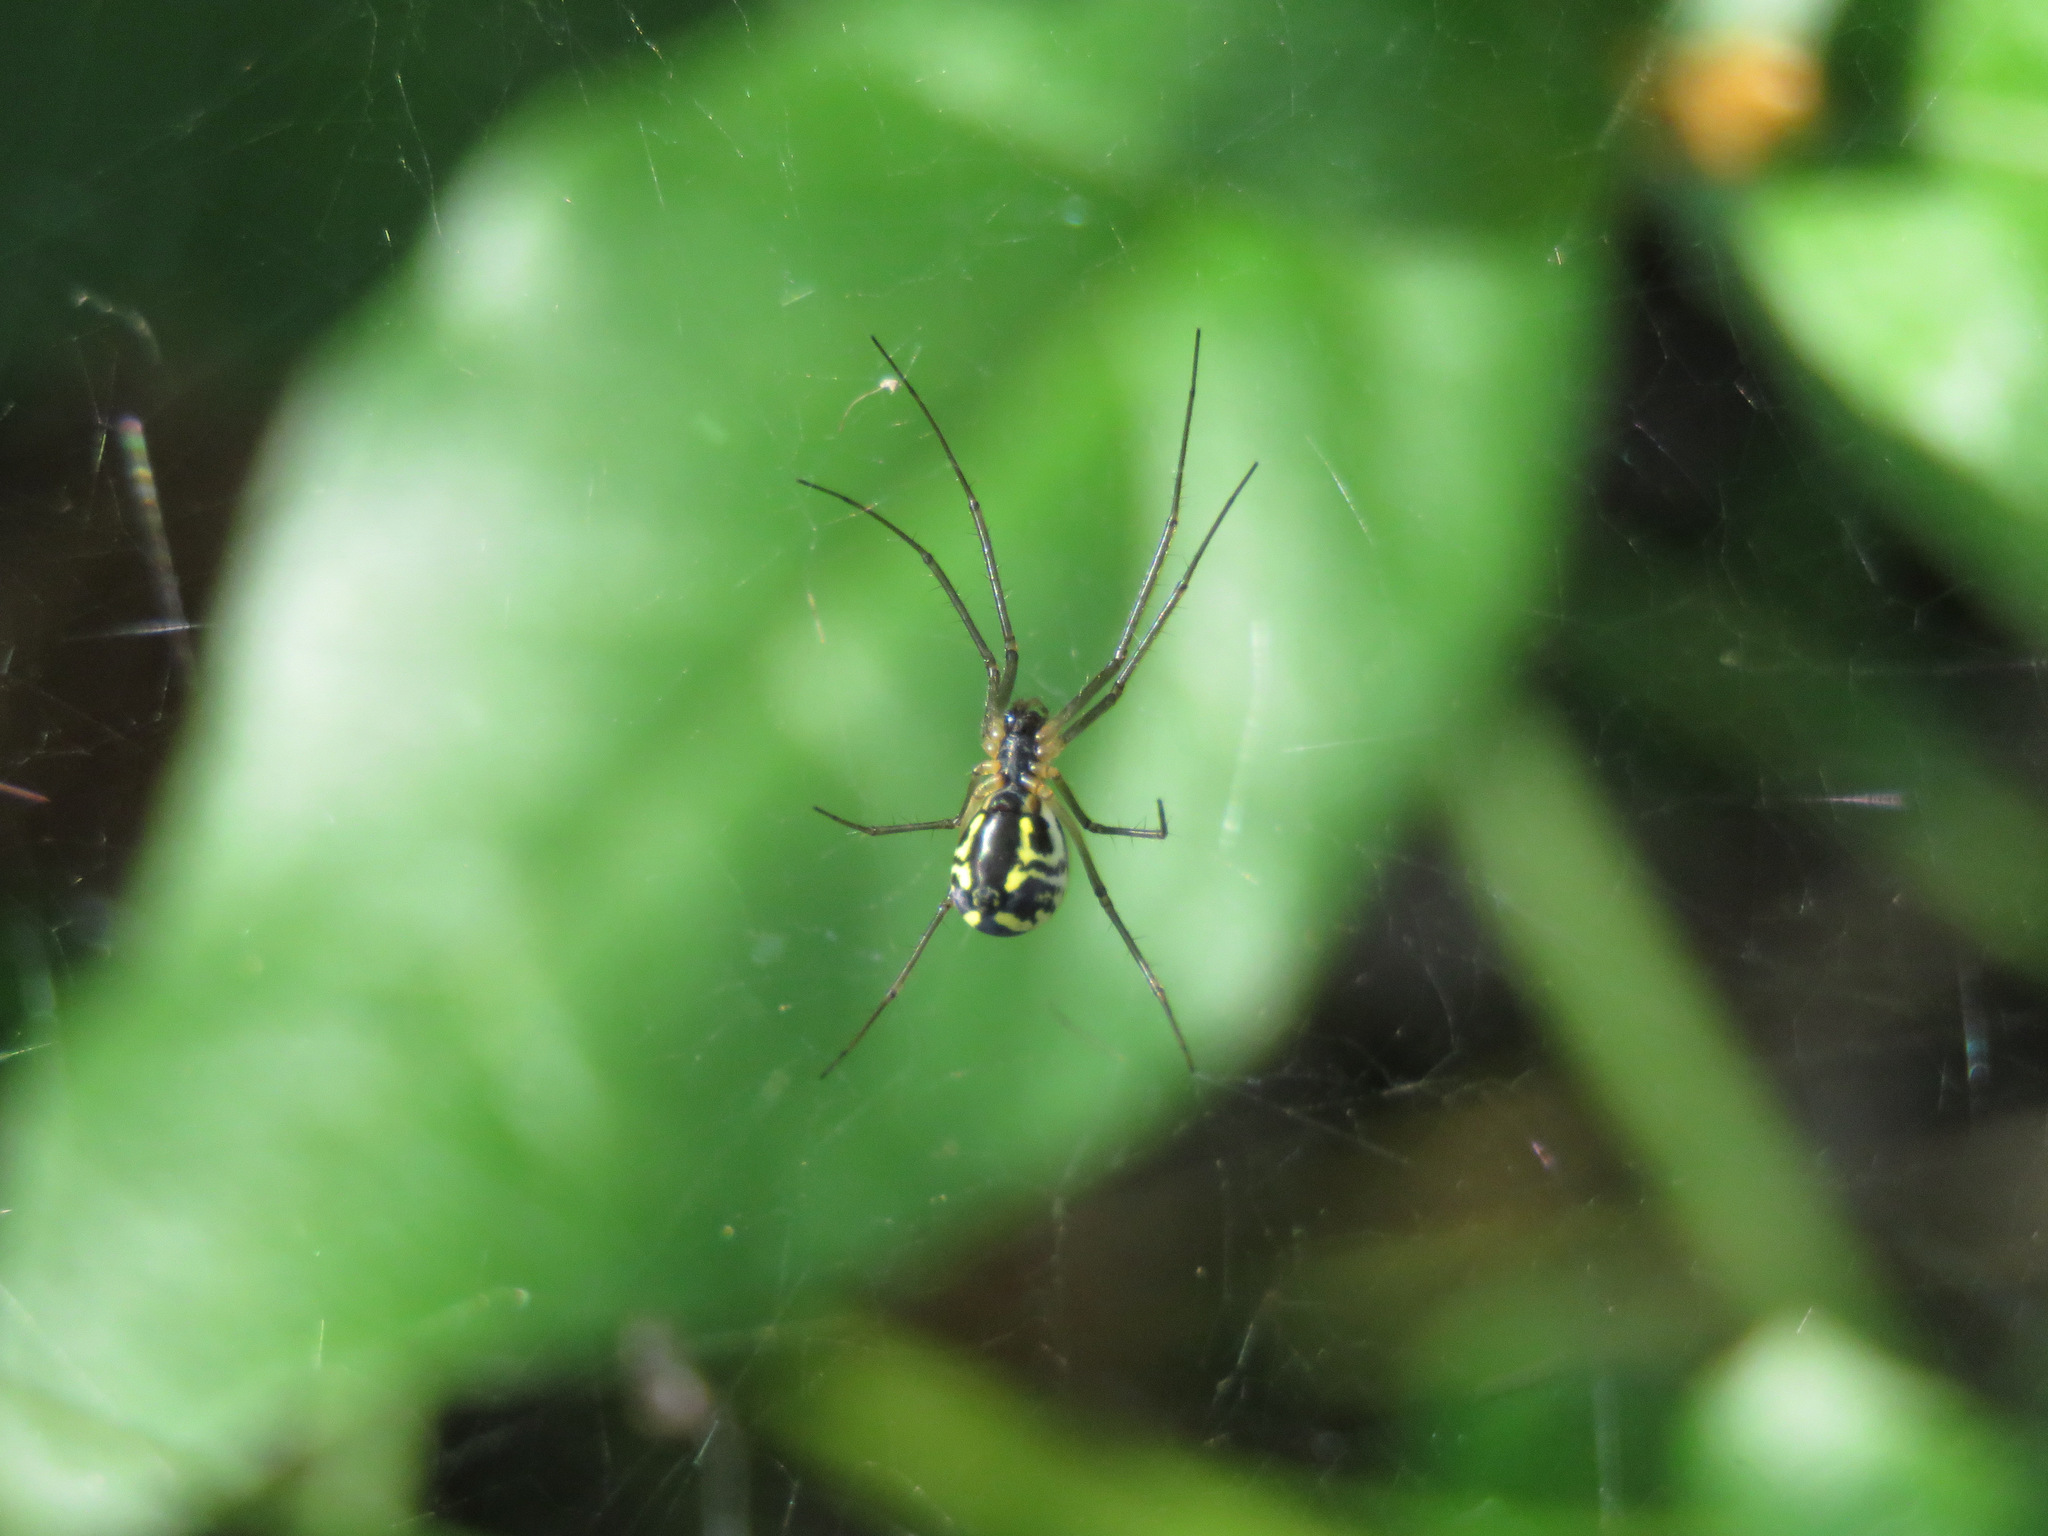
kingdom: Animalia
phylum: Arthropoda
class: Arachnida
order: Araneae
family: Linyphiidae
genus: Neriene
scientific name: Neriene radiata
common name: Filmy dome spider
